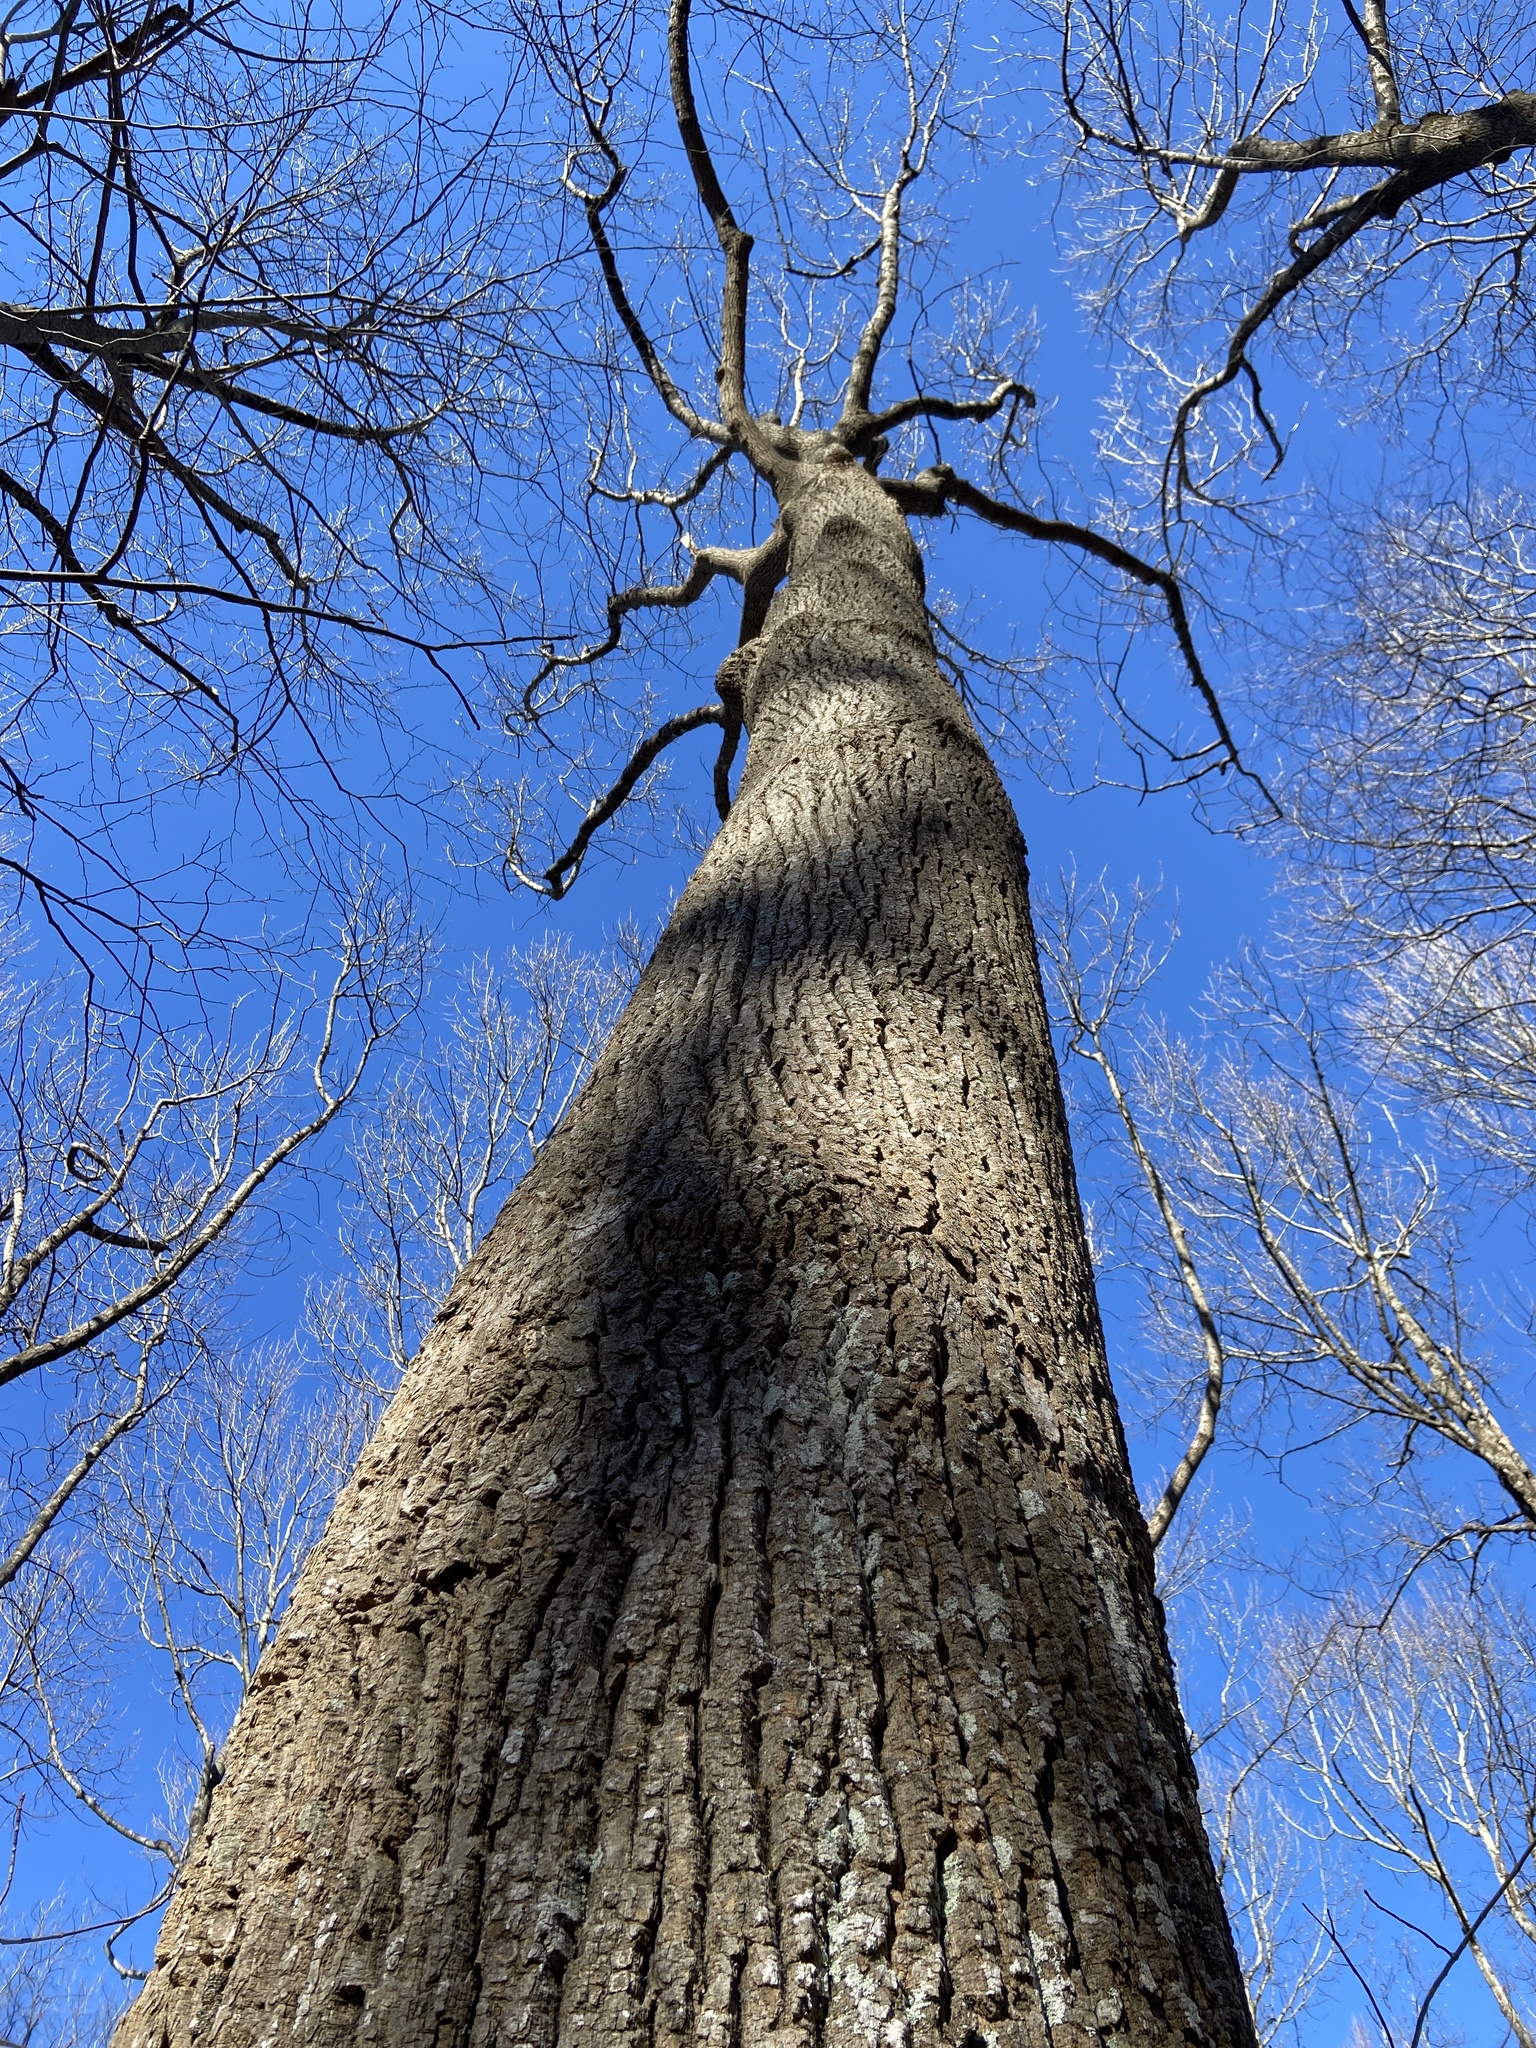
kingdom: Plantae
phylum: Tracheophyta
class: Magnoliopsida
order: Magnoliales
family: Magnoliaceae
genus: Liriodendron
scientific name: Liriodendron tulipifera
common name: Tulip tree
